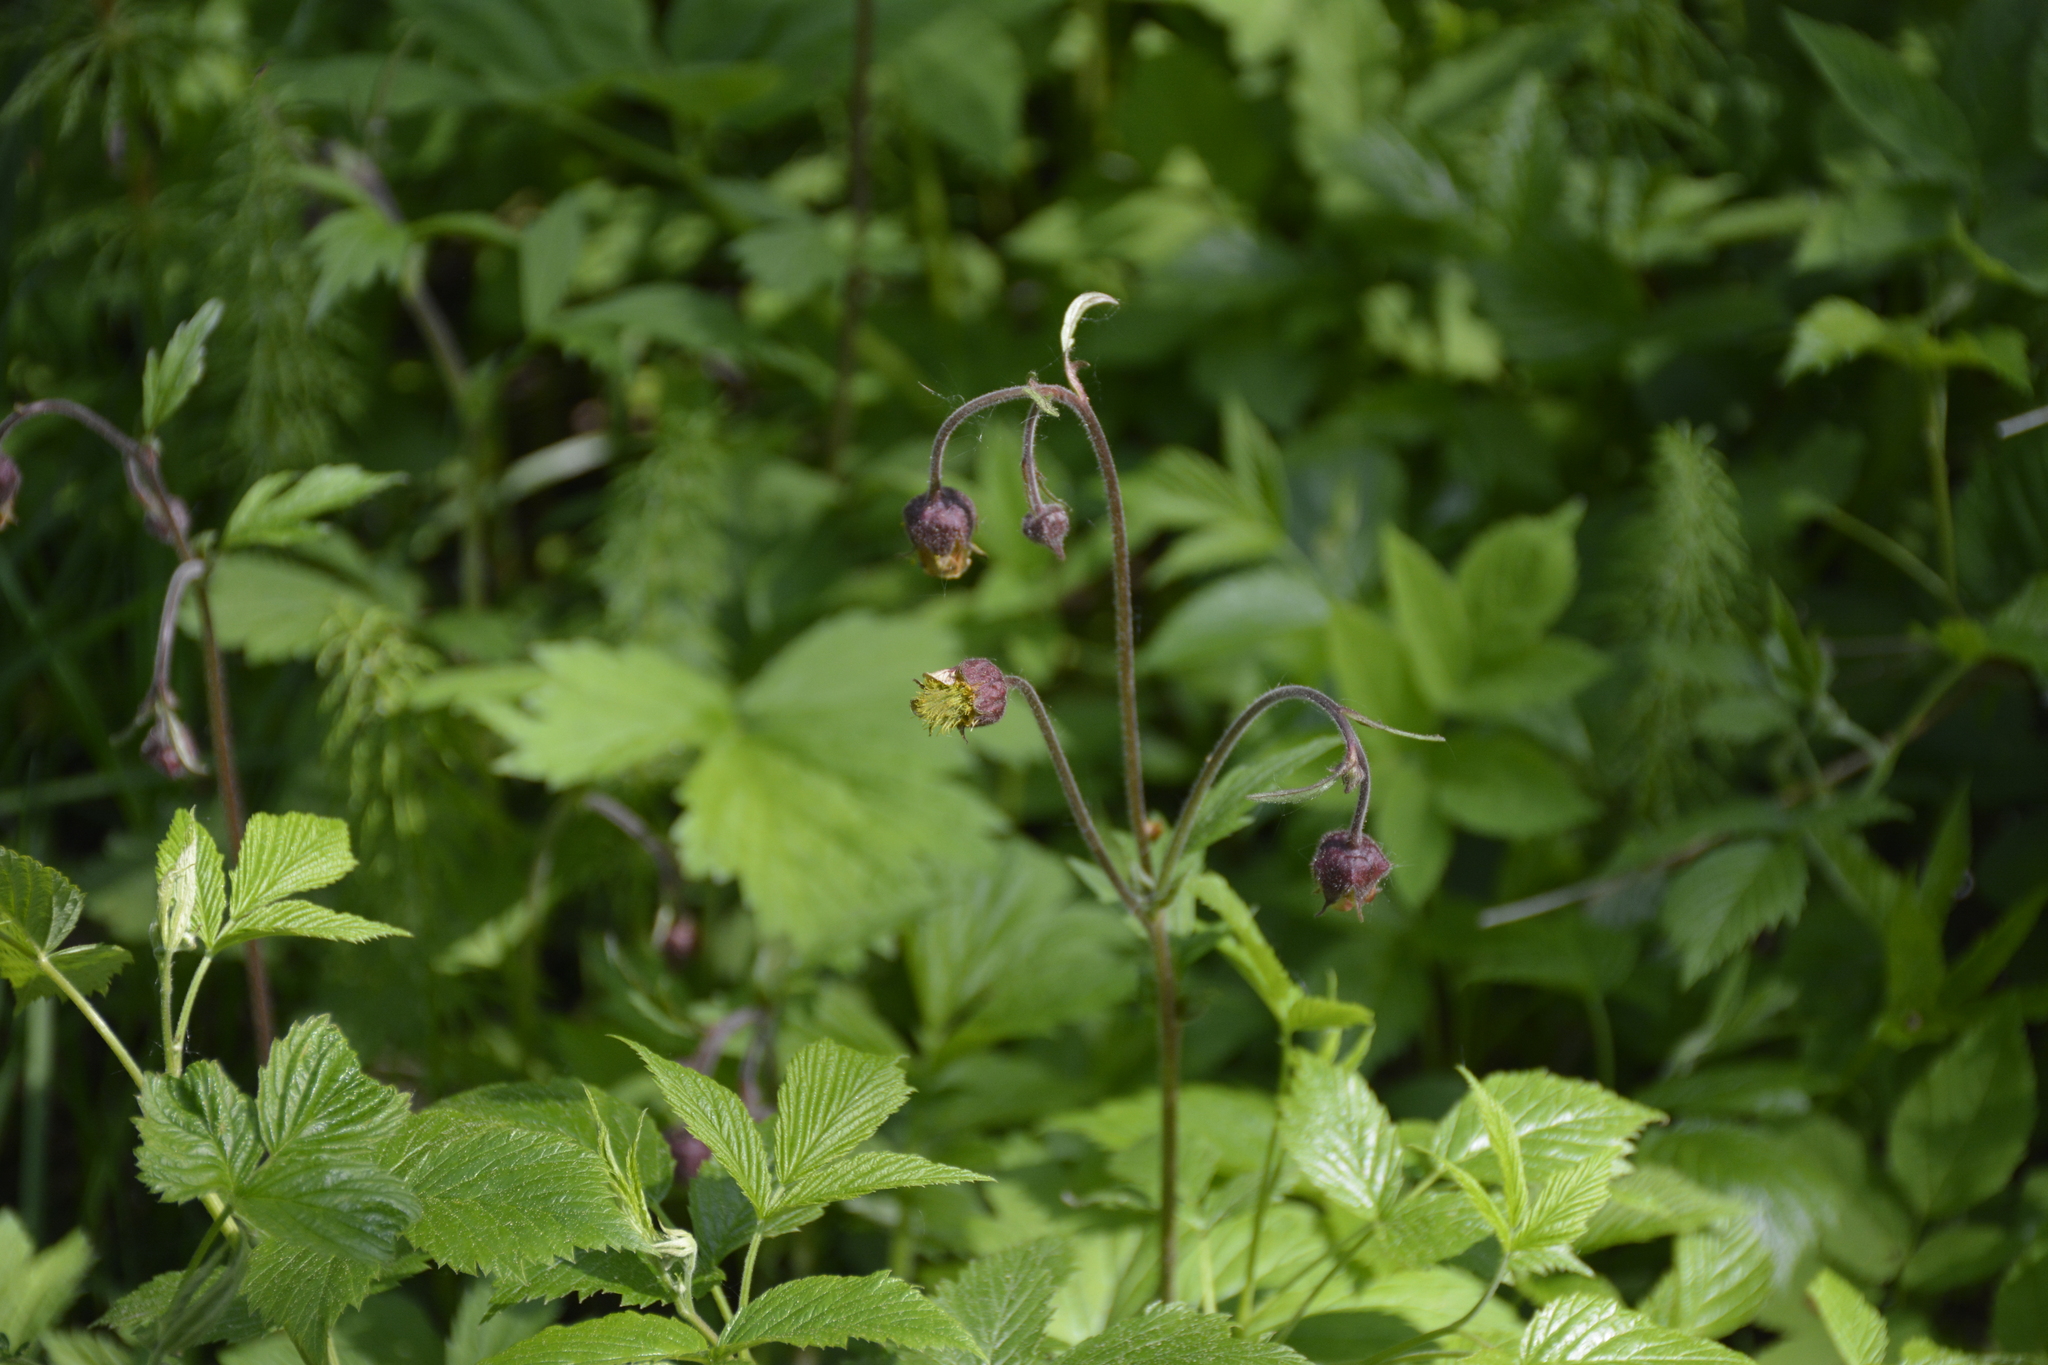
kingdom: Plantae
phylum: Tracheophyta
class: Magnoliopsida
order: Rosales
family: Rosaceae
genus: Geum
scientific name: Geum rivale
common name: Water avens
